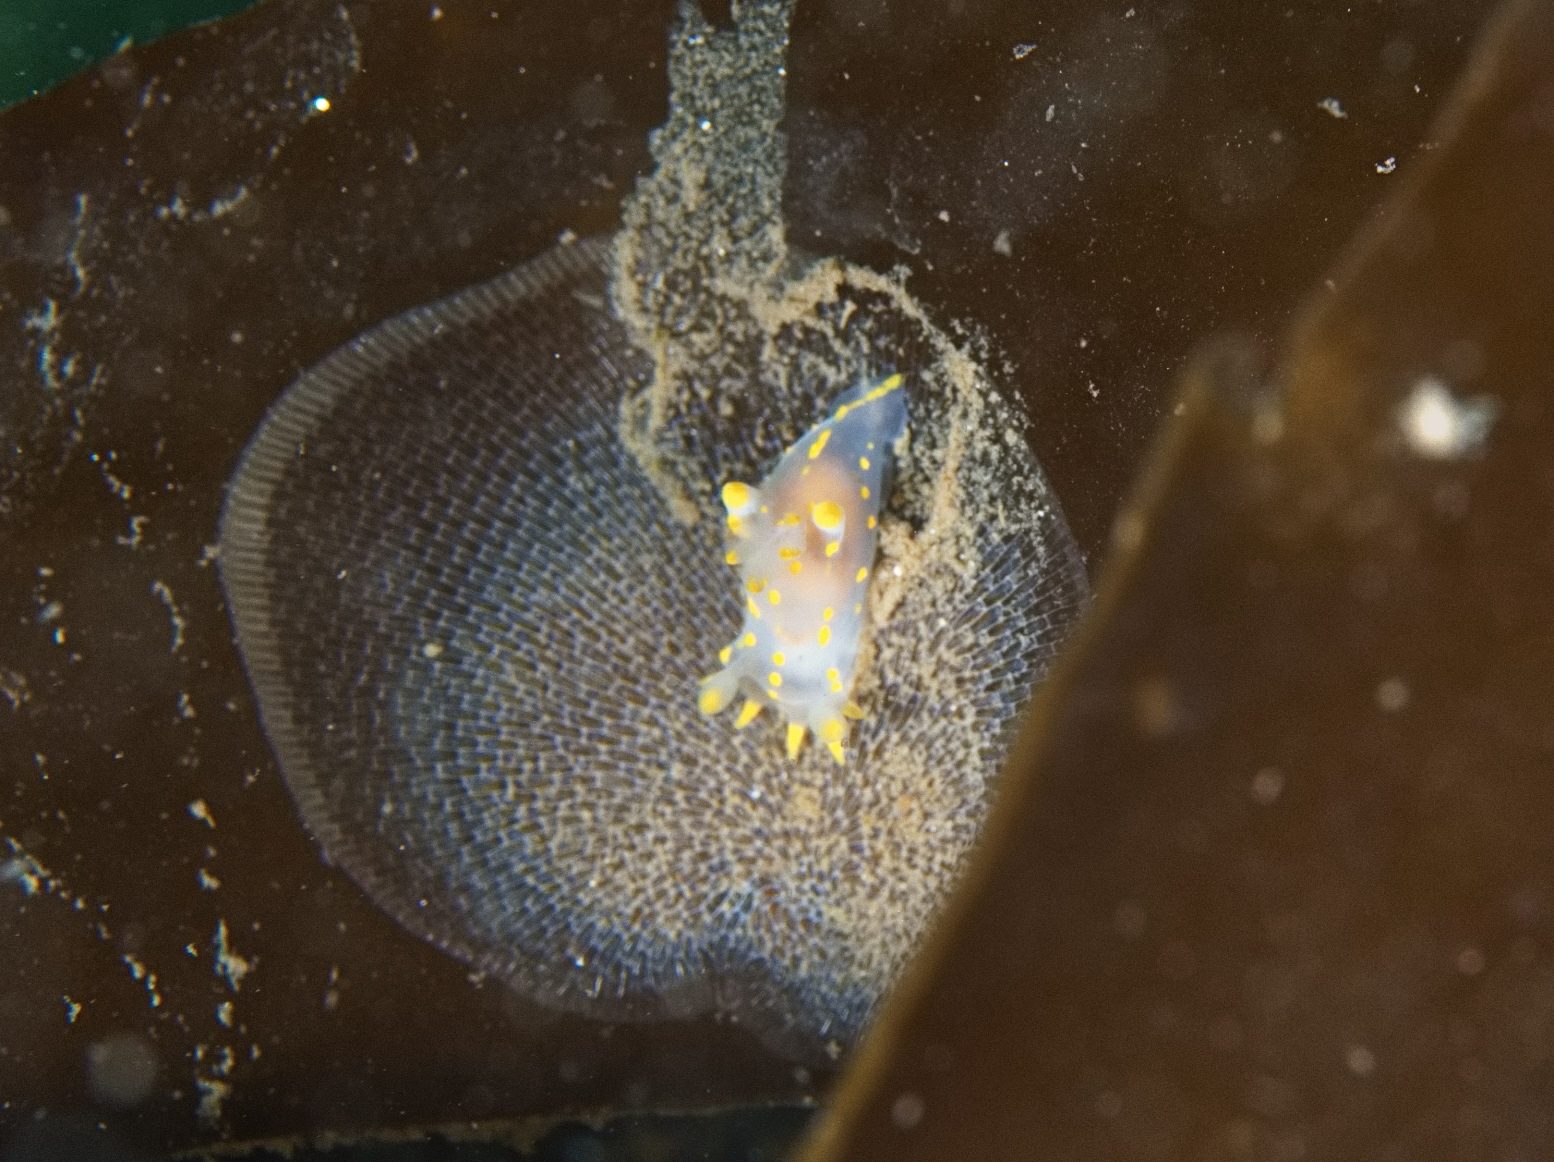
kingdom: Animalia
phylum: Bryozoa
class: Gymnolaemata
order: Cheilostomatida
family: Membraniporidae
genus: Membranipora
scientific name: Membranipora membranacea
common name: Sea mat
